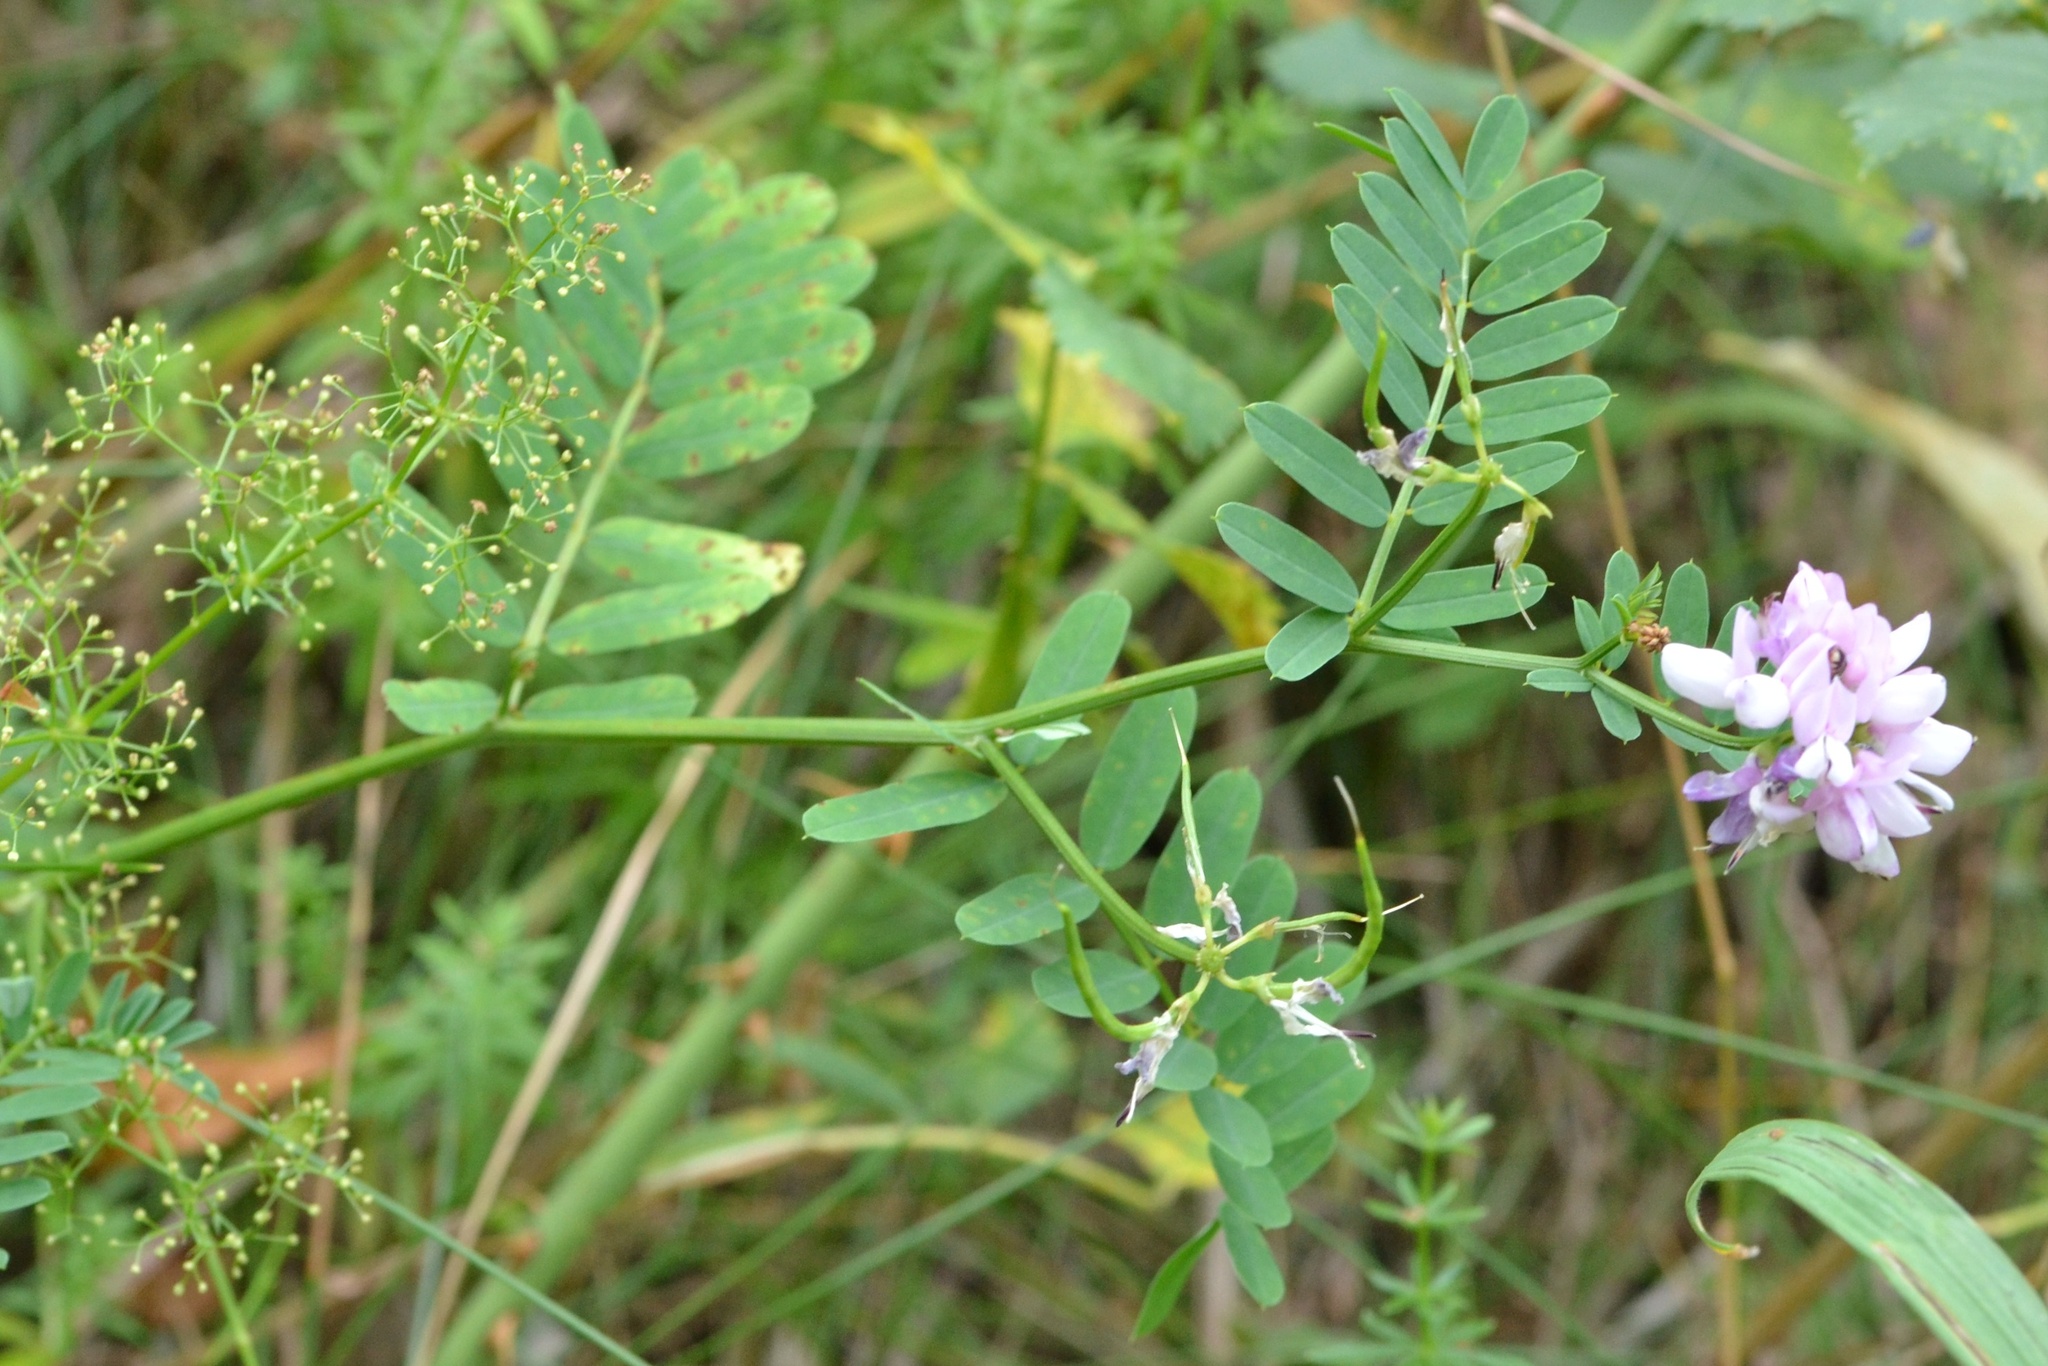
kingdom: Plantae
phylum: Tracheophyta
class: Magnoliopsida
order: Fabales
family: Fabaceae
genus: Coronilla
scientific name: Coronilla varia
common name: Crownvetch
